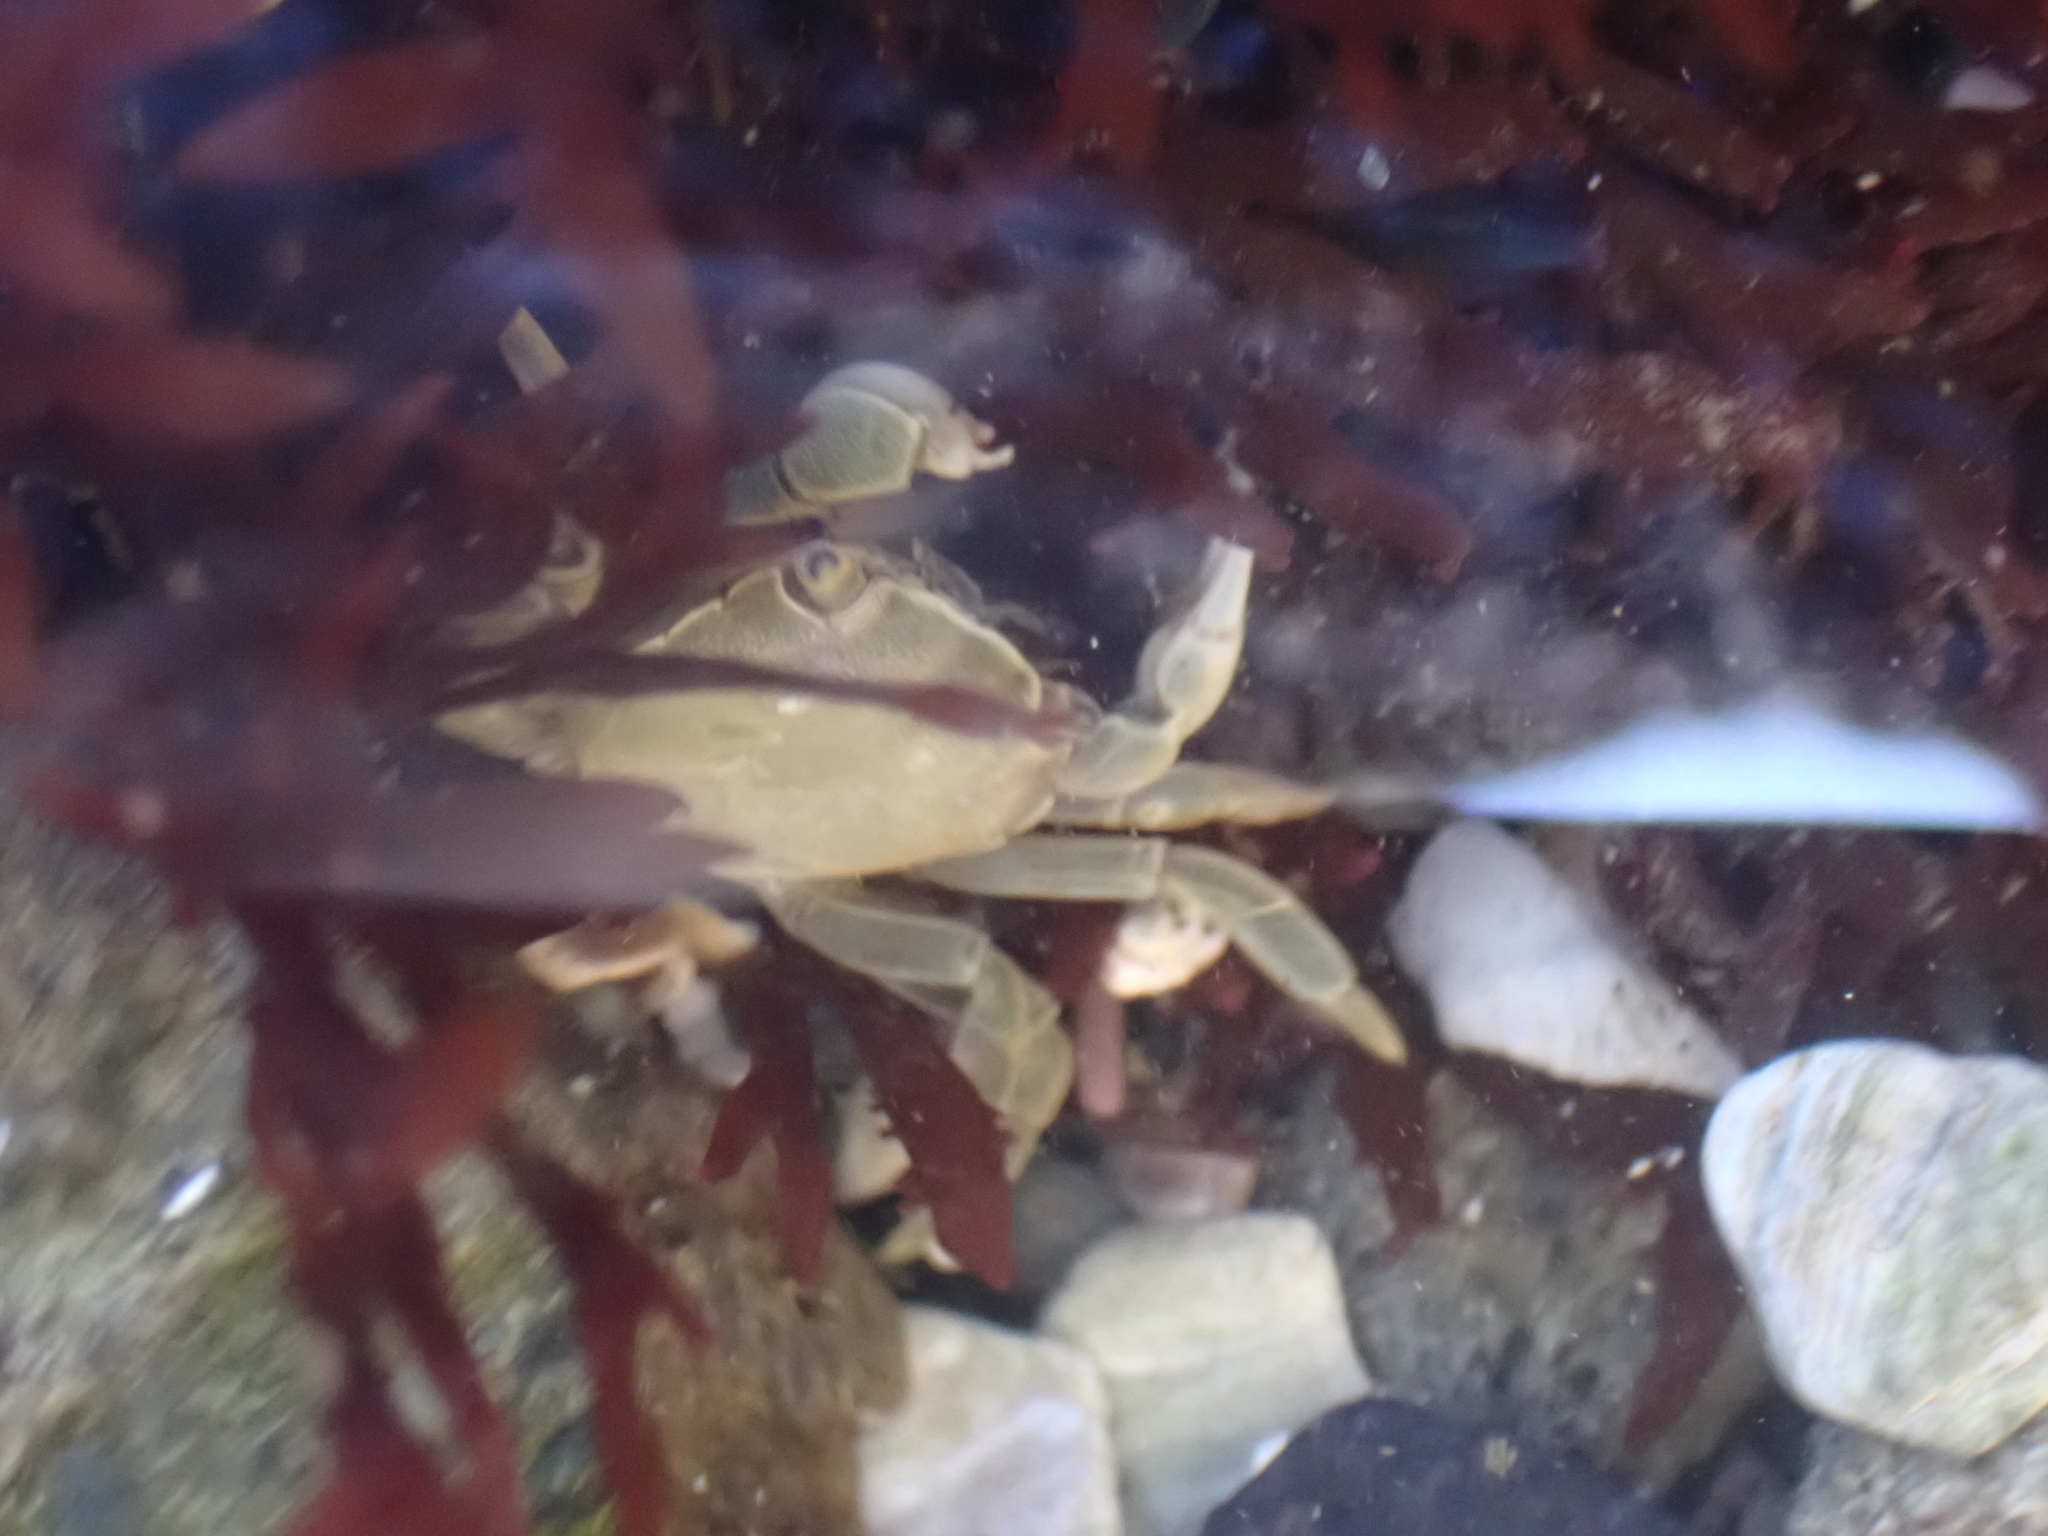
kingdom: Animalia
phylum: Arthropoda
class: Malacostraca
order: Decapoda
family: Varunidae
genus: Hemigrapsus
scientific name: Hemigrapsus nudus
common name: Purple shore crab
